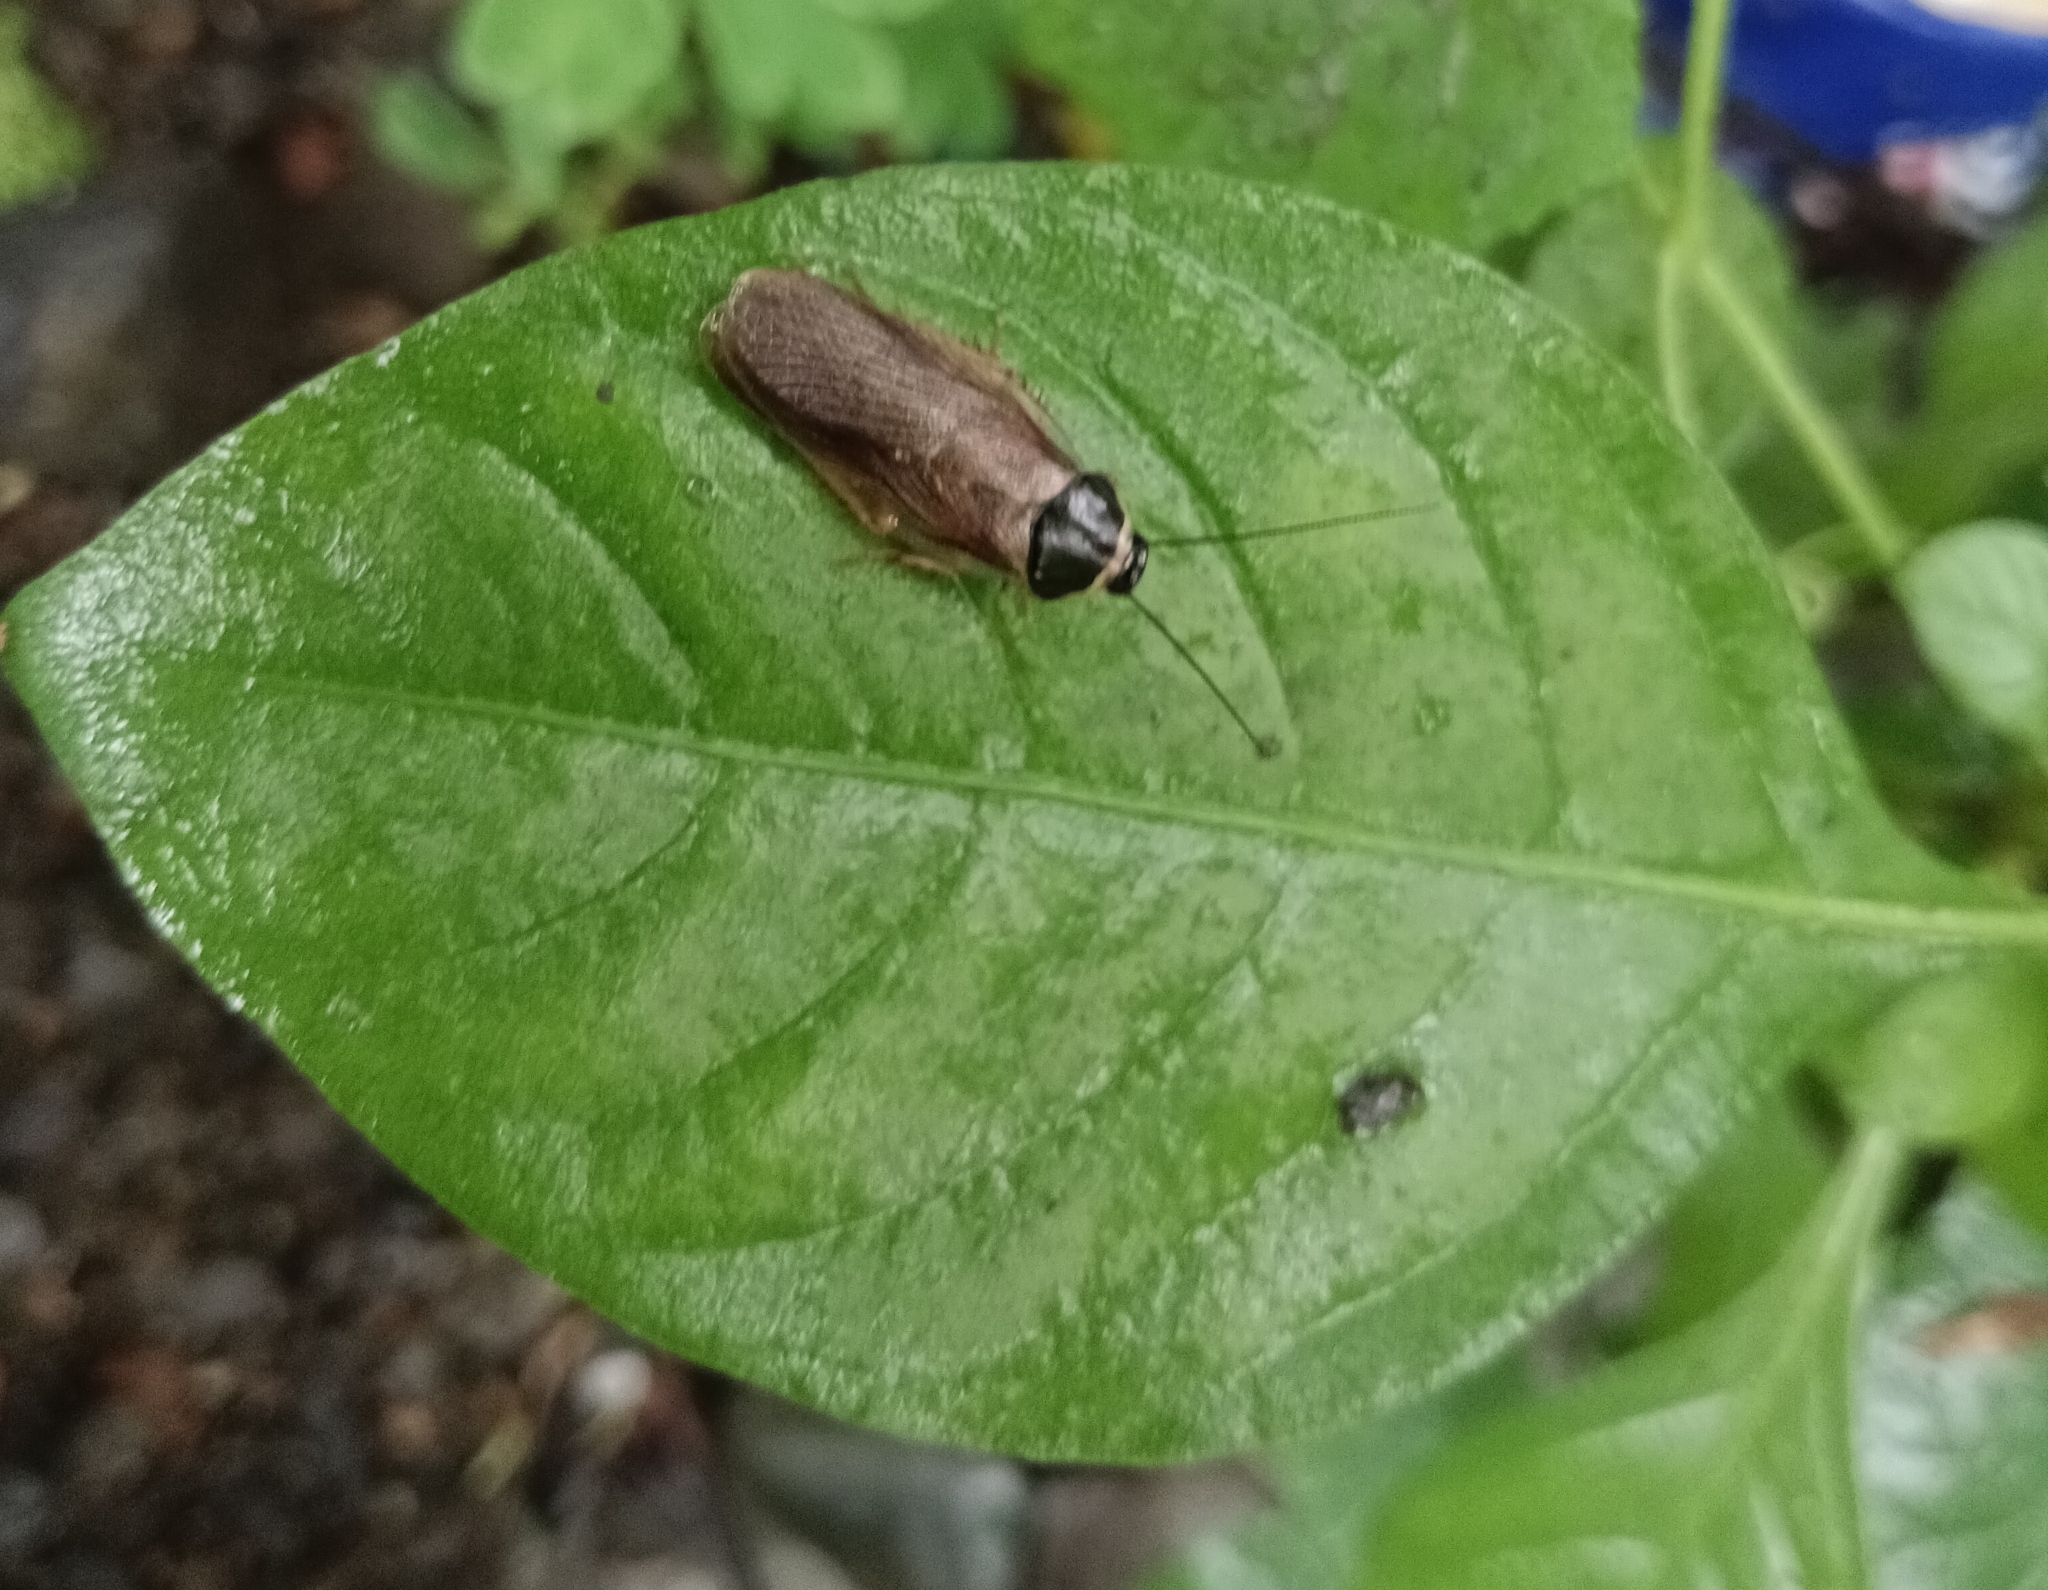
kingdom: Animalia
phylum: Arthropoda
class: Insecta
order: Blattodea
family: Blaberidae
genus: Pycnoscelus
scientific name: Pycnoscelus indicus
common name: Burrowing cockroach
